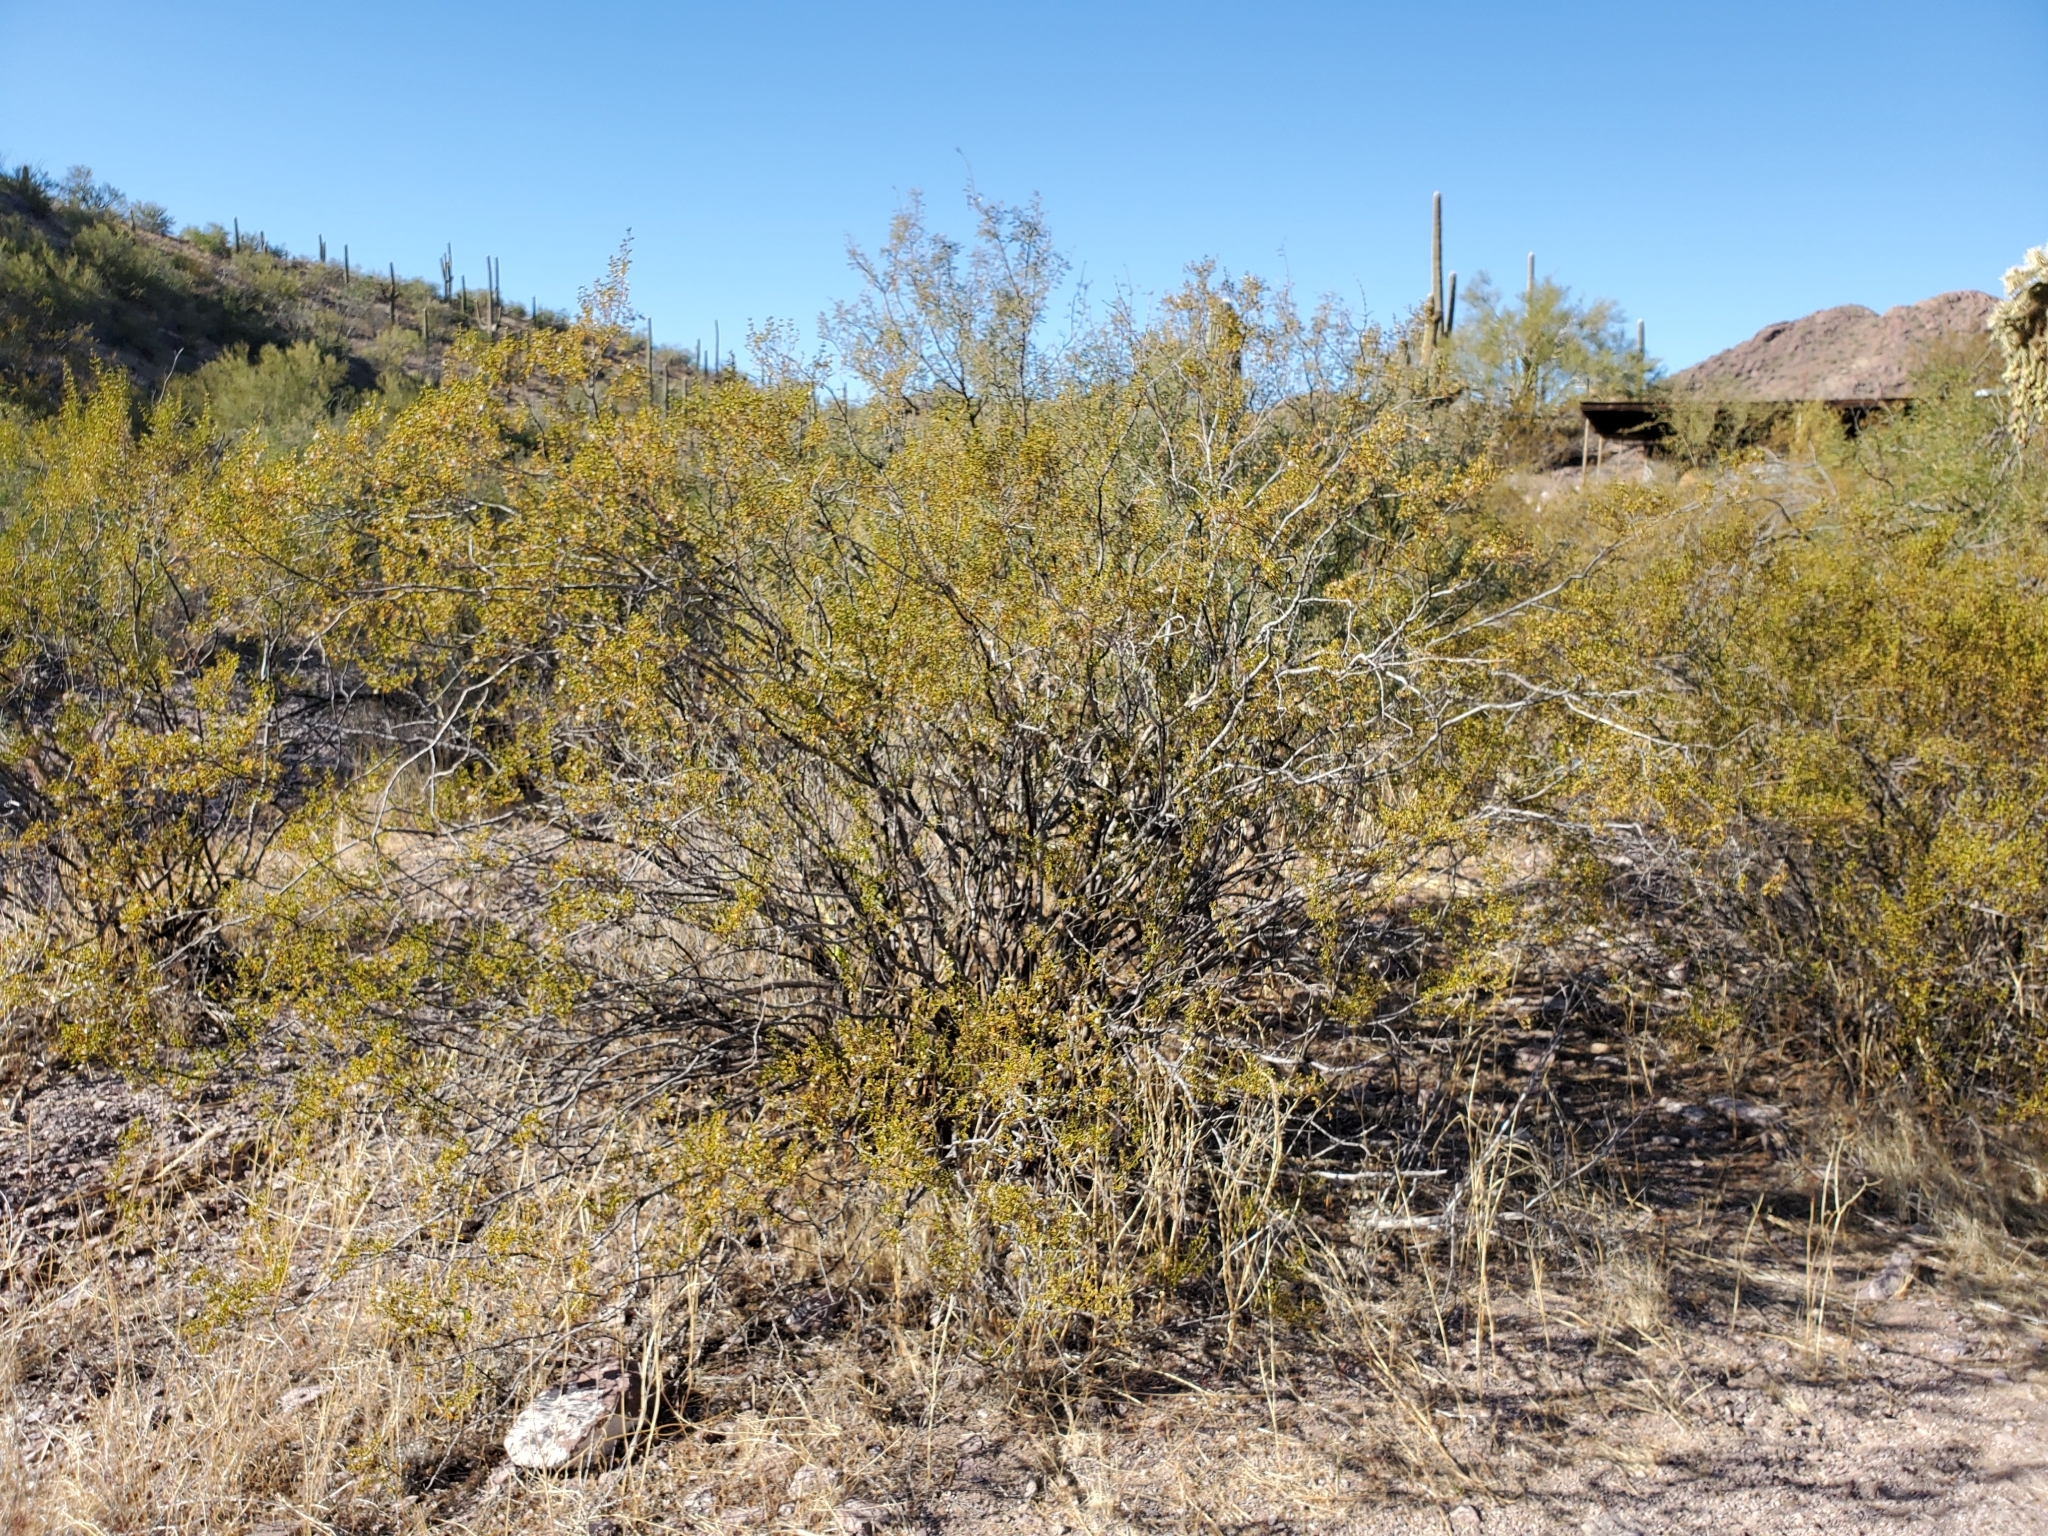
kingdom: Plantae
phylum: Tracheophyta
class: Magnoliopsida
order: Zygophyllales
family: Zygophyllaceae
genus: Larrea
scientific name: Larrea tridentata
